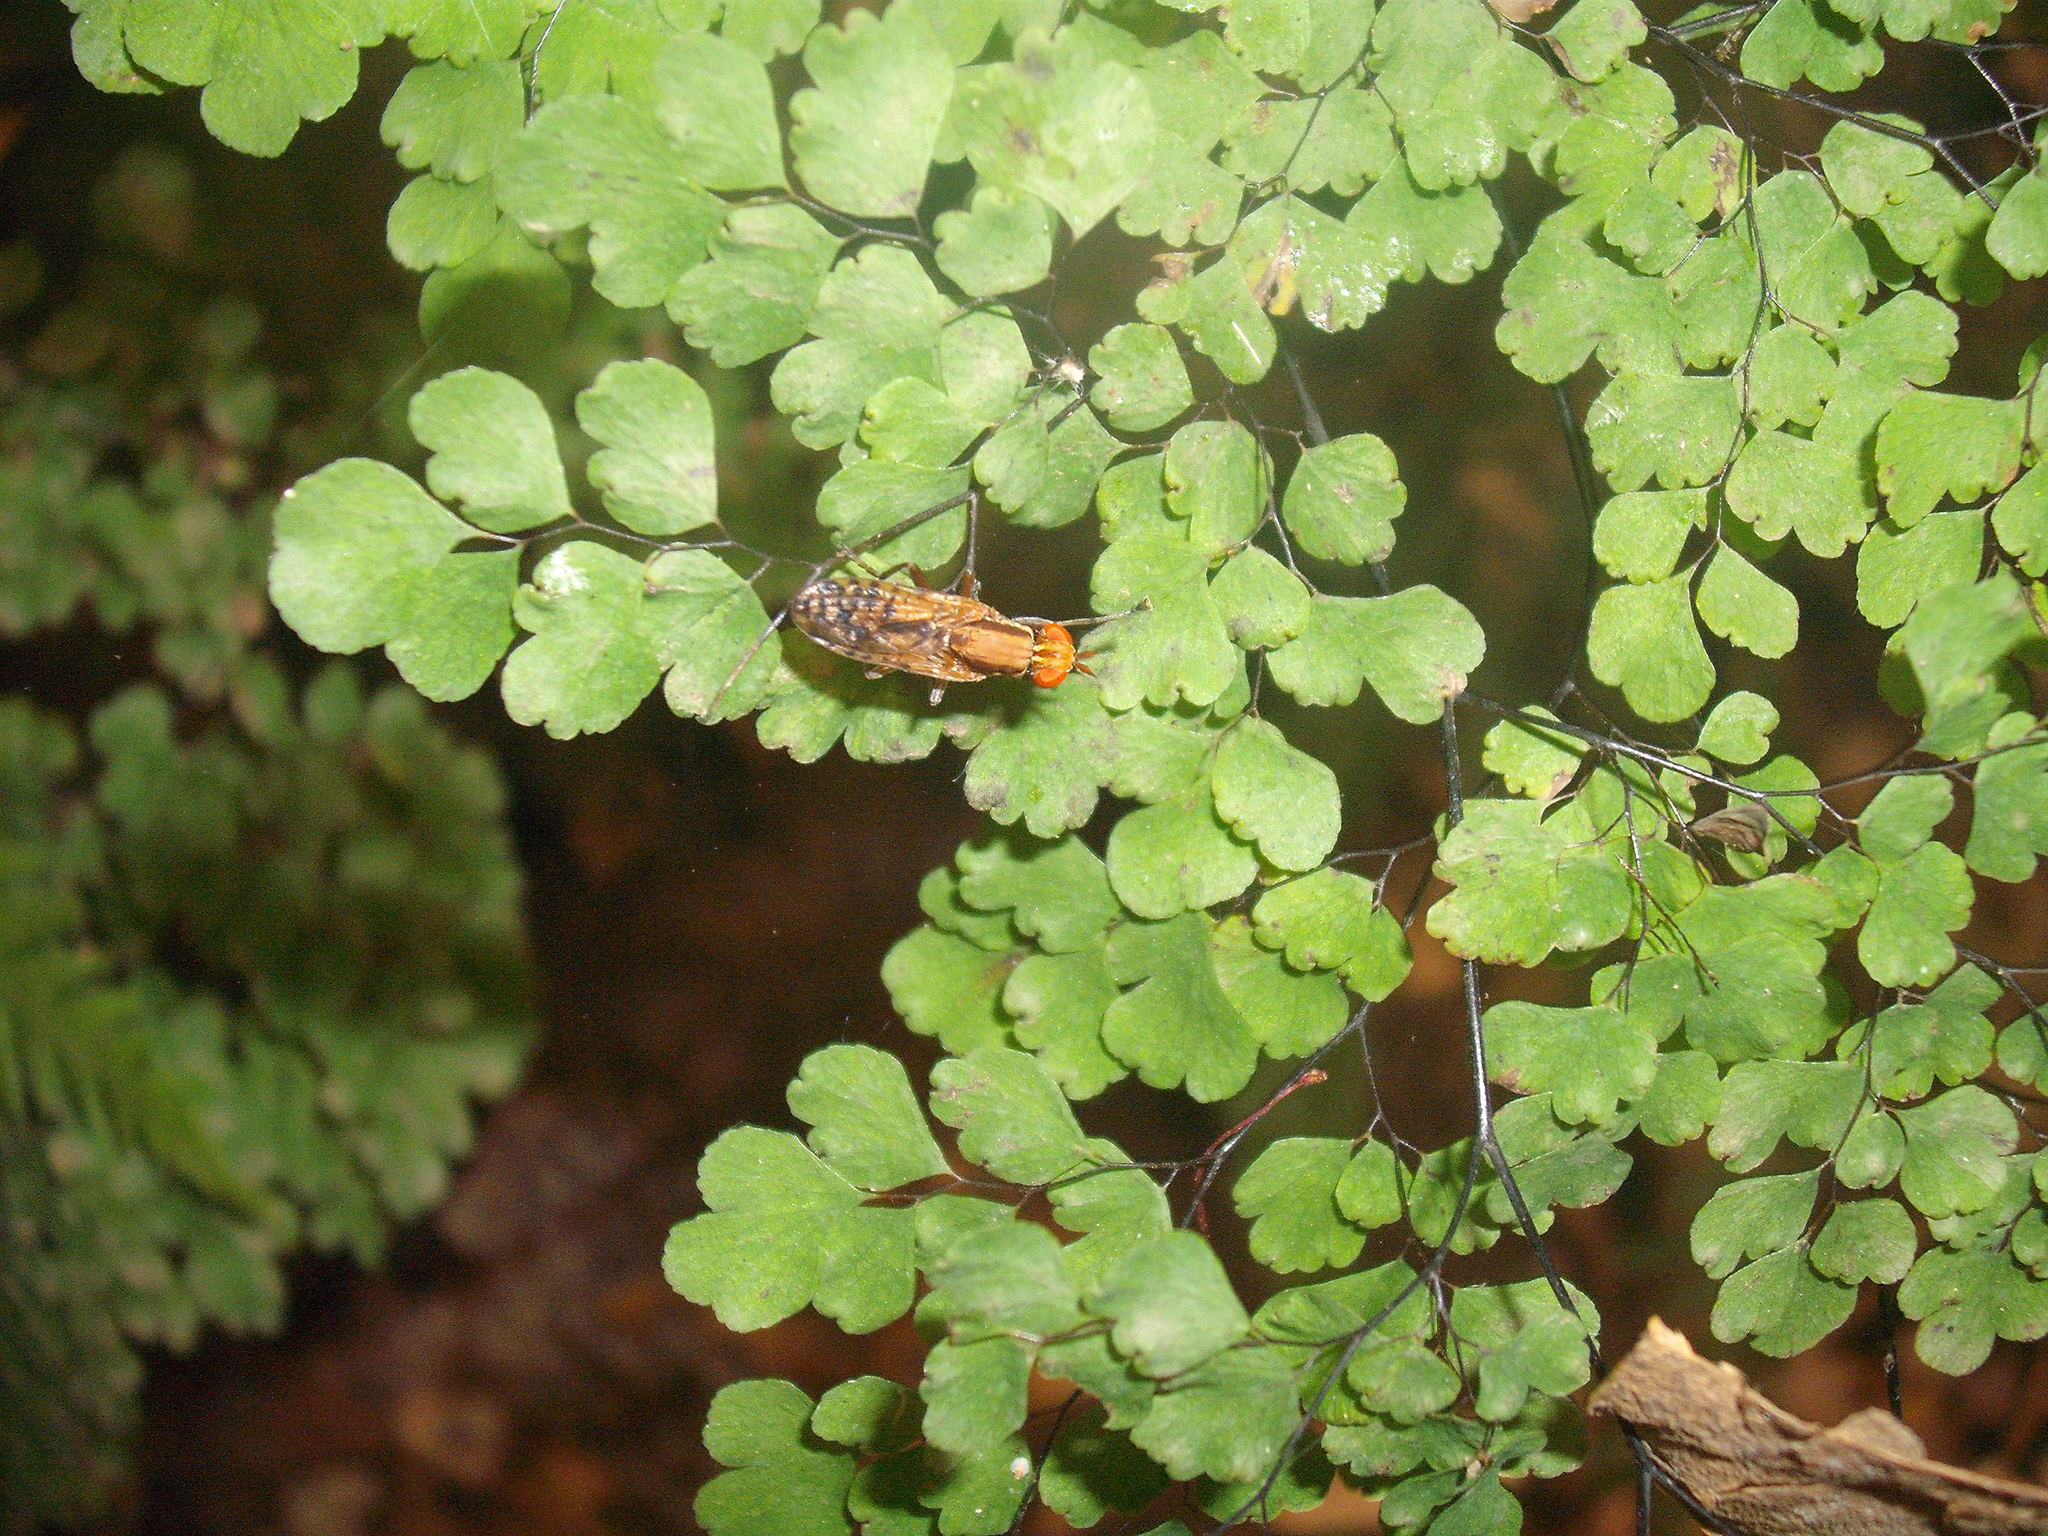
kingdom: Animalia
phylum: Arthropoda
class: Insecta
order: Diptera
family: Sciomyzidae
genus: Neolimnia
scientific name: Neolimnia tranquilla
